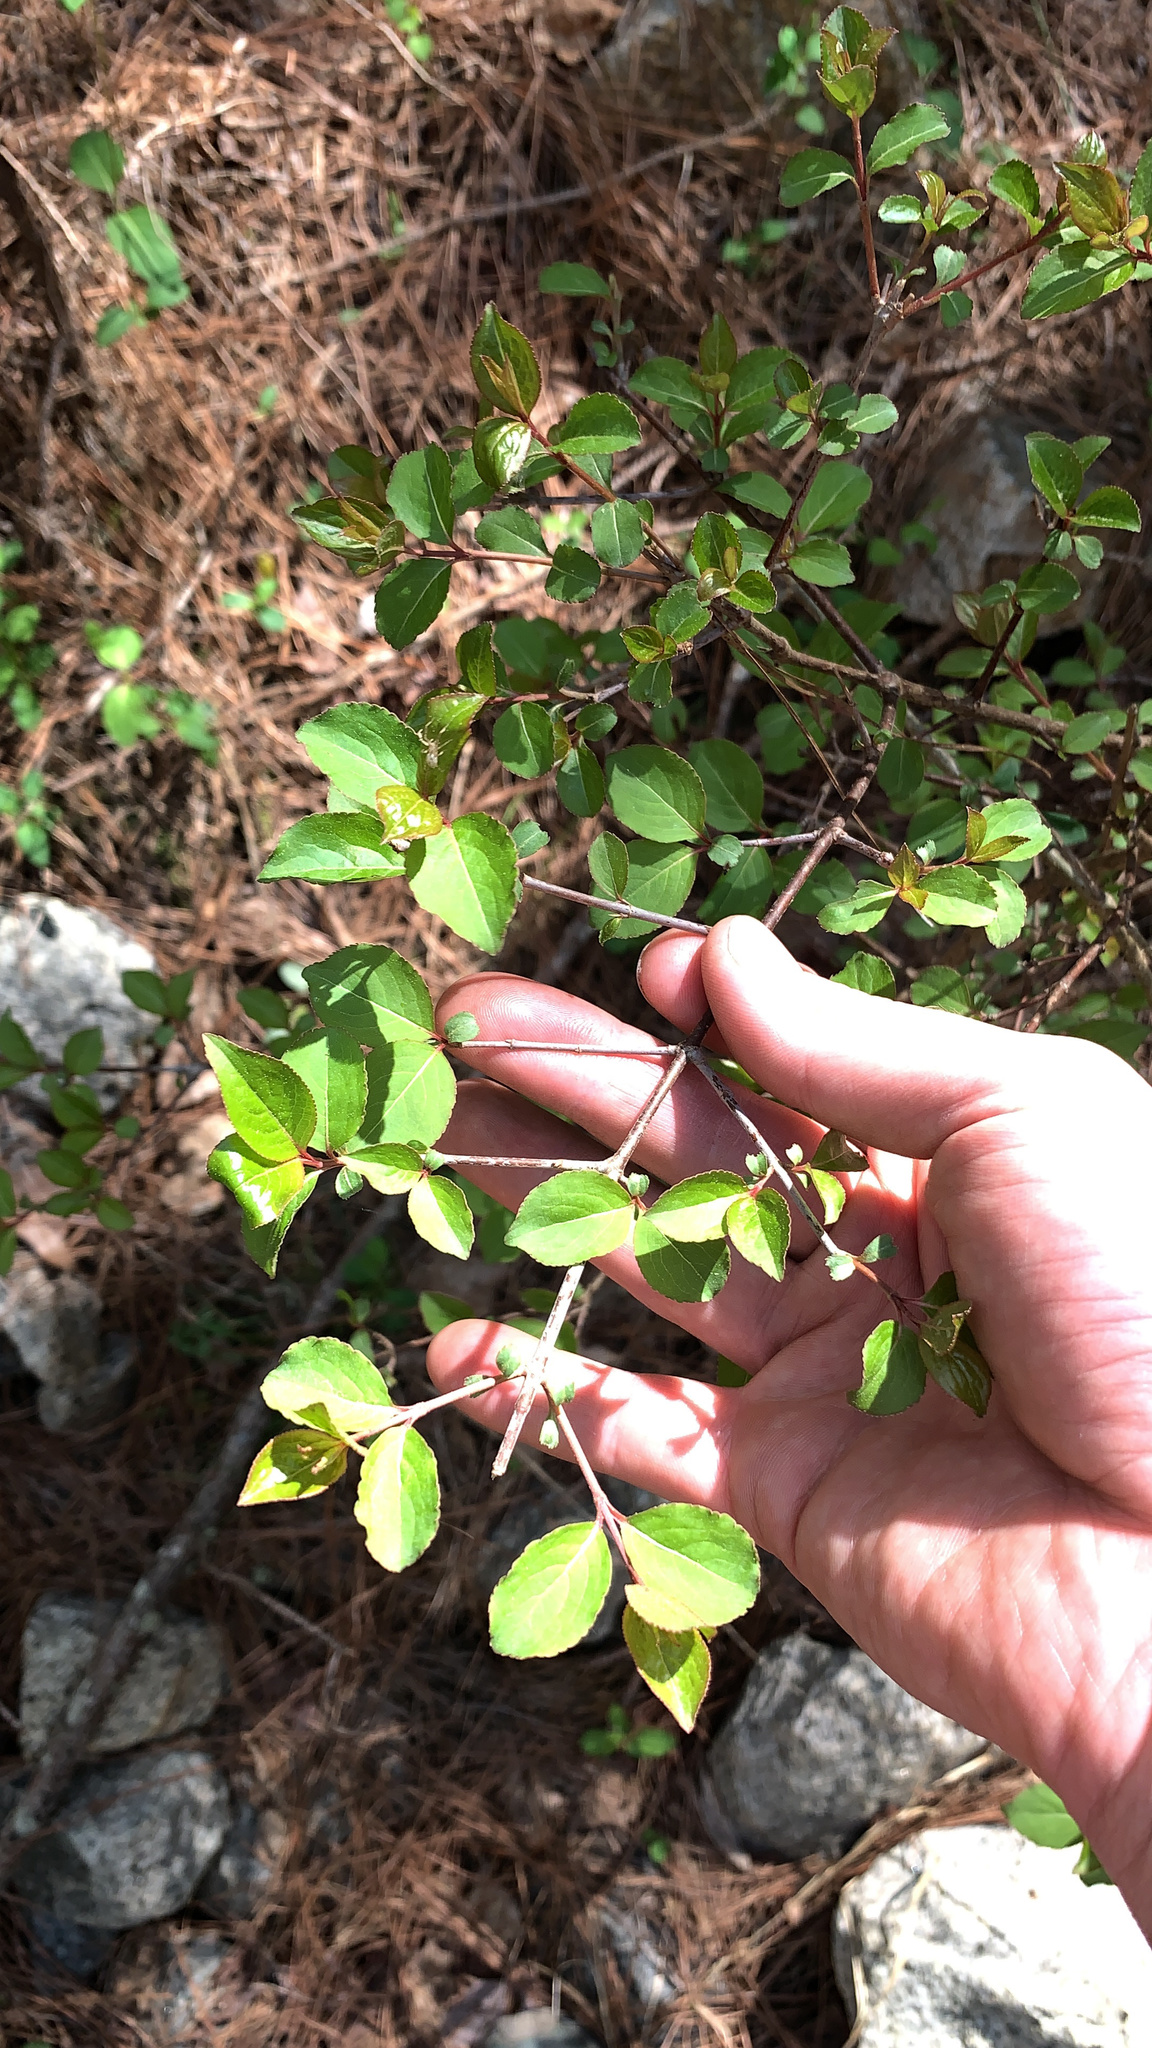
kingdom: Plantae
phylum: Tracheophyta
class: Magnoliopsida
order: Dipsacales
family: Viburnaceae
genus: Viburnum
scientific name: Viburnum prunifolium
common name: Black haw
